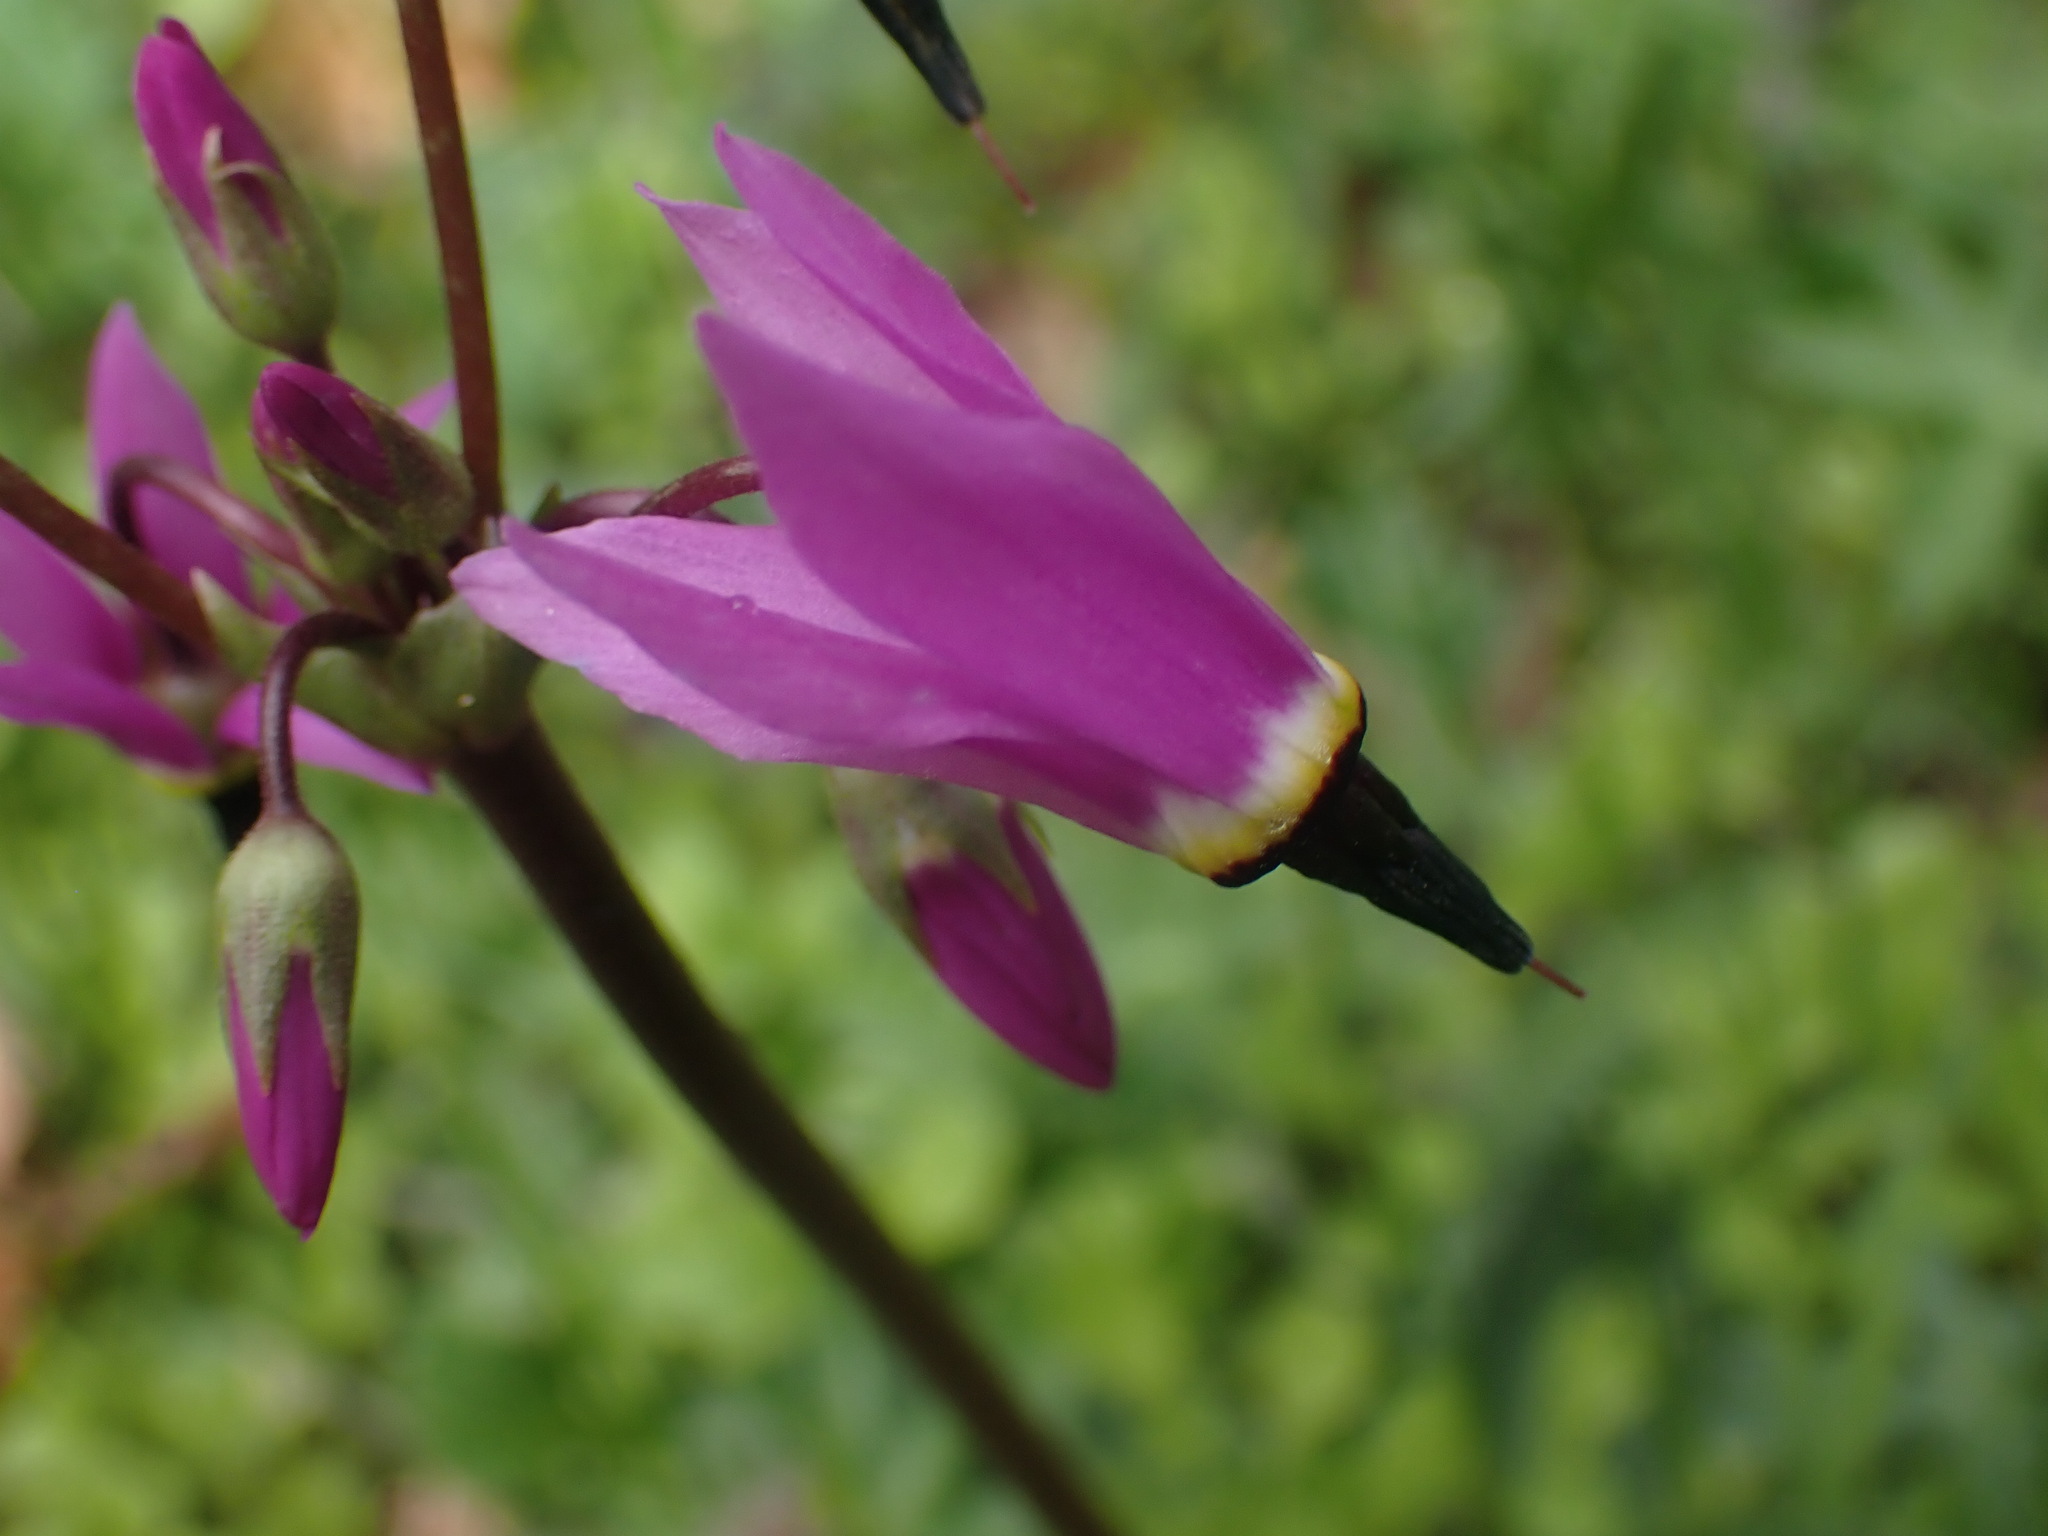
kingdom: Plantae
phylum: Tracheophyta
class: Magnoliopsida
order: Ericales
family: Primulaceae
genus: Dodecatheon
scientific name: Dodecatheon hendersonii
